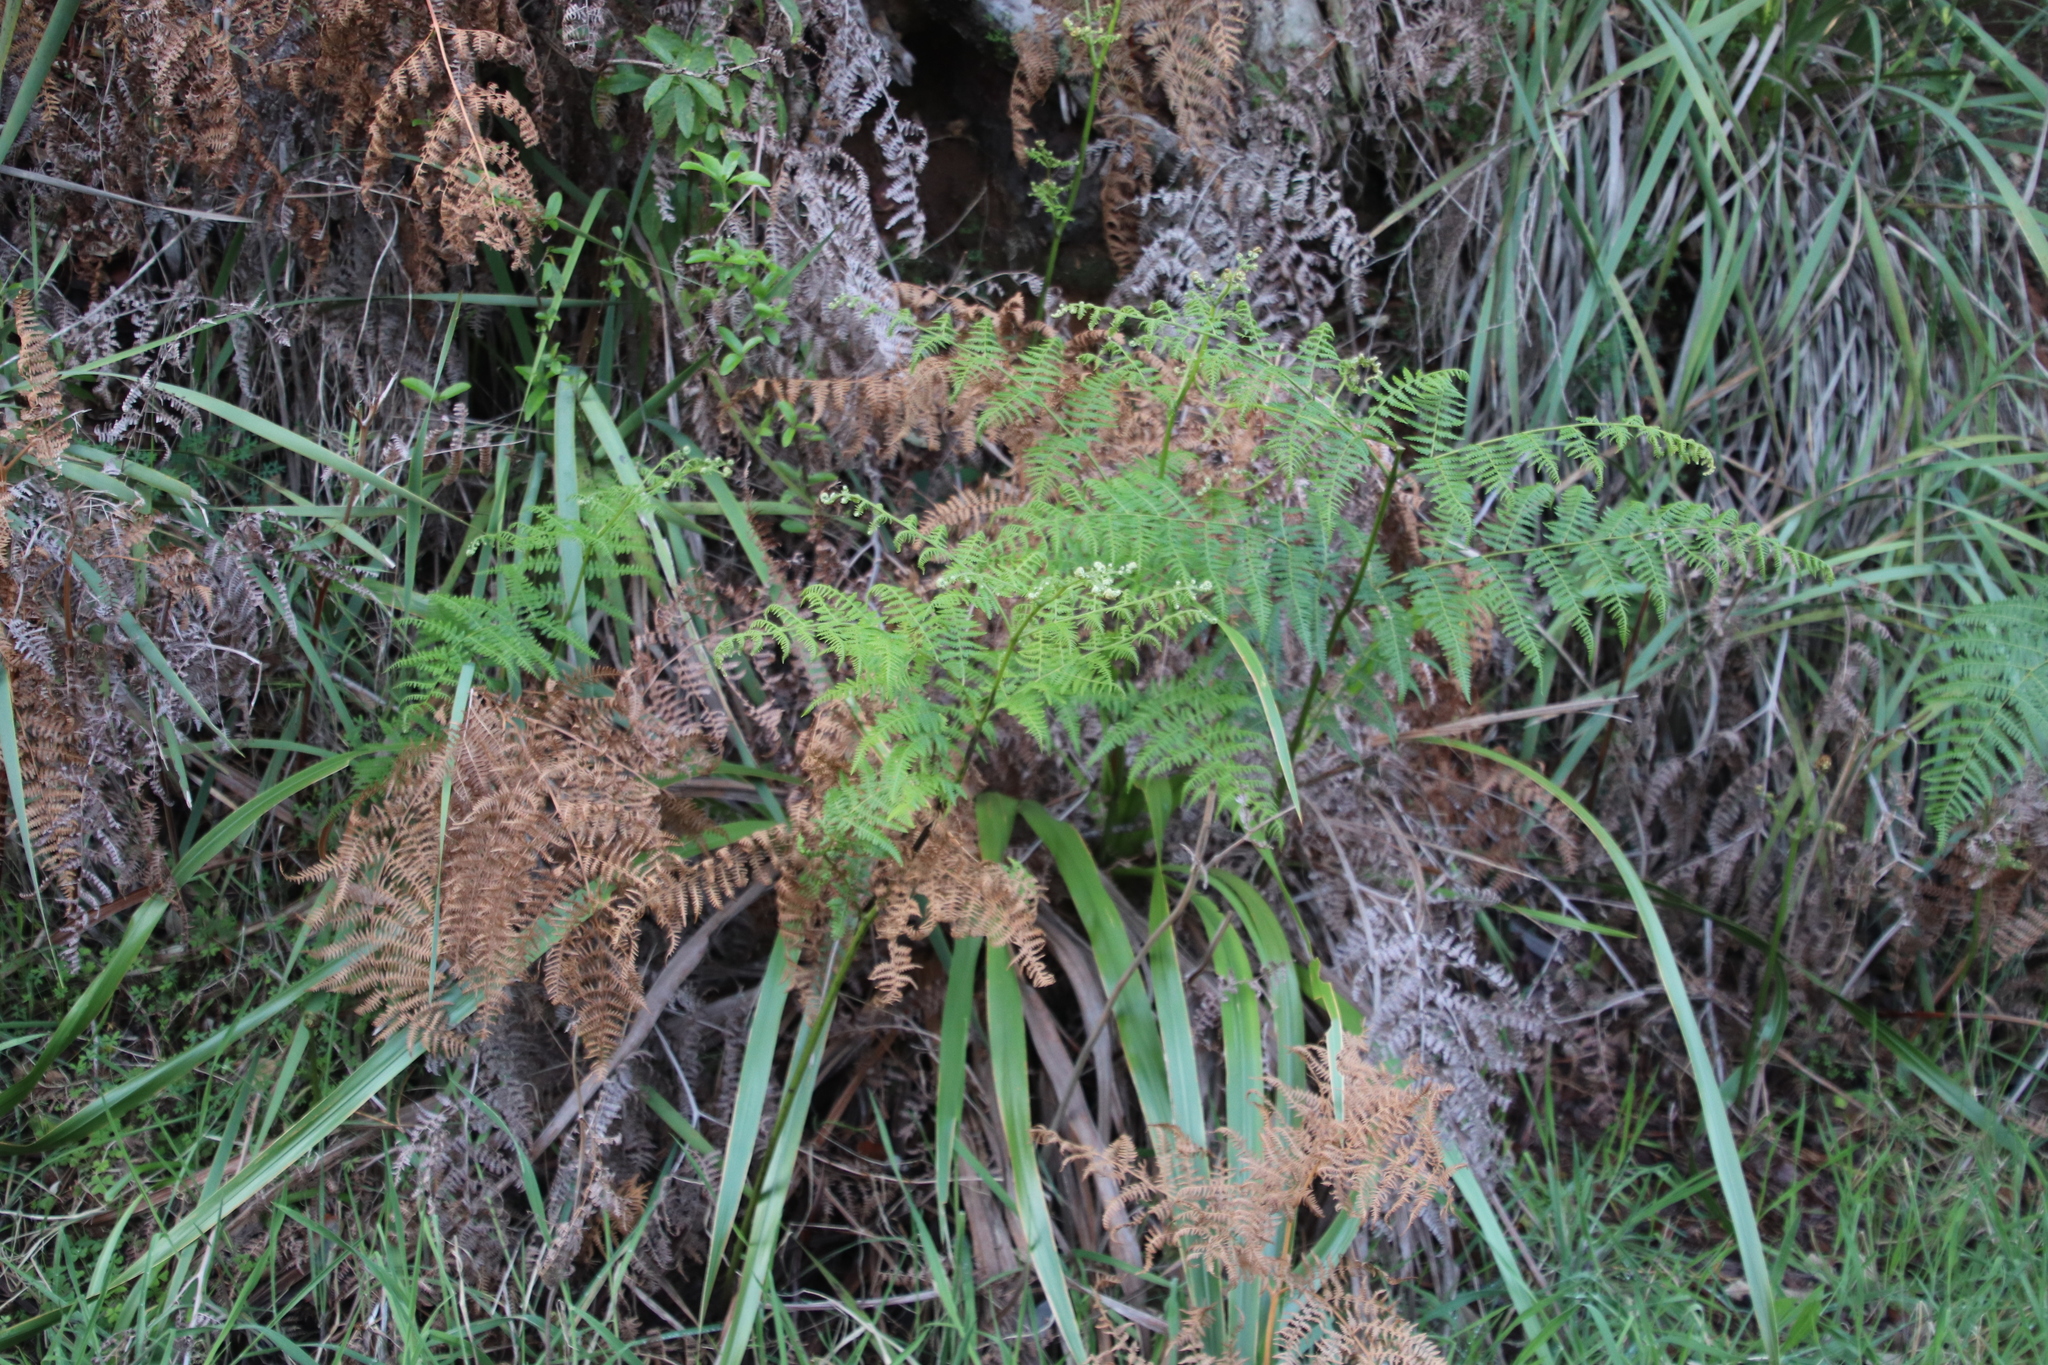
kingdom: Plantae
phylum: Tracheophyta
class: Polypodiopsida
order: Polypodiales
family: Dennstaedtiaceae
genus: Pteridium
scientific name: Pteridium aquilinum
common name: Bracken
